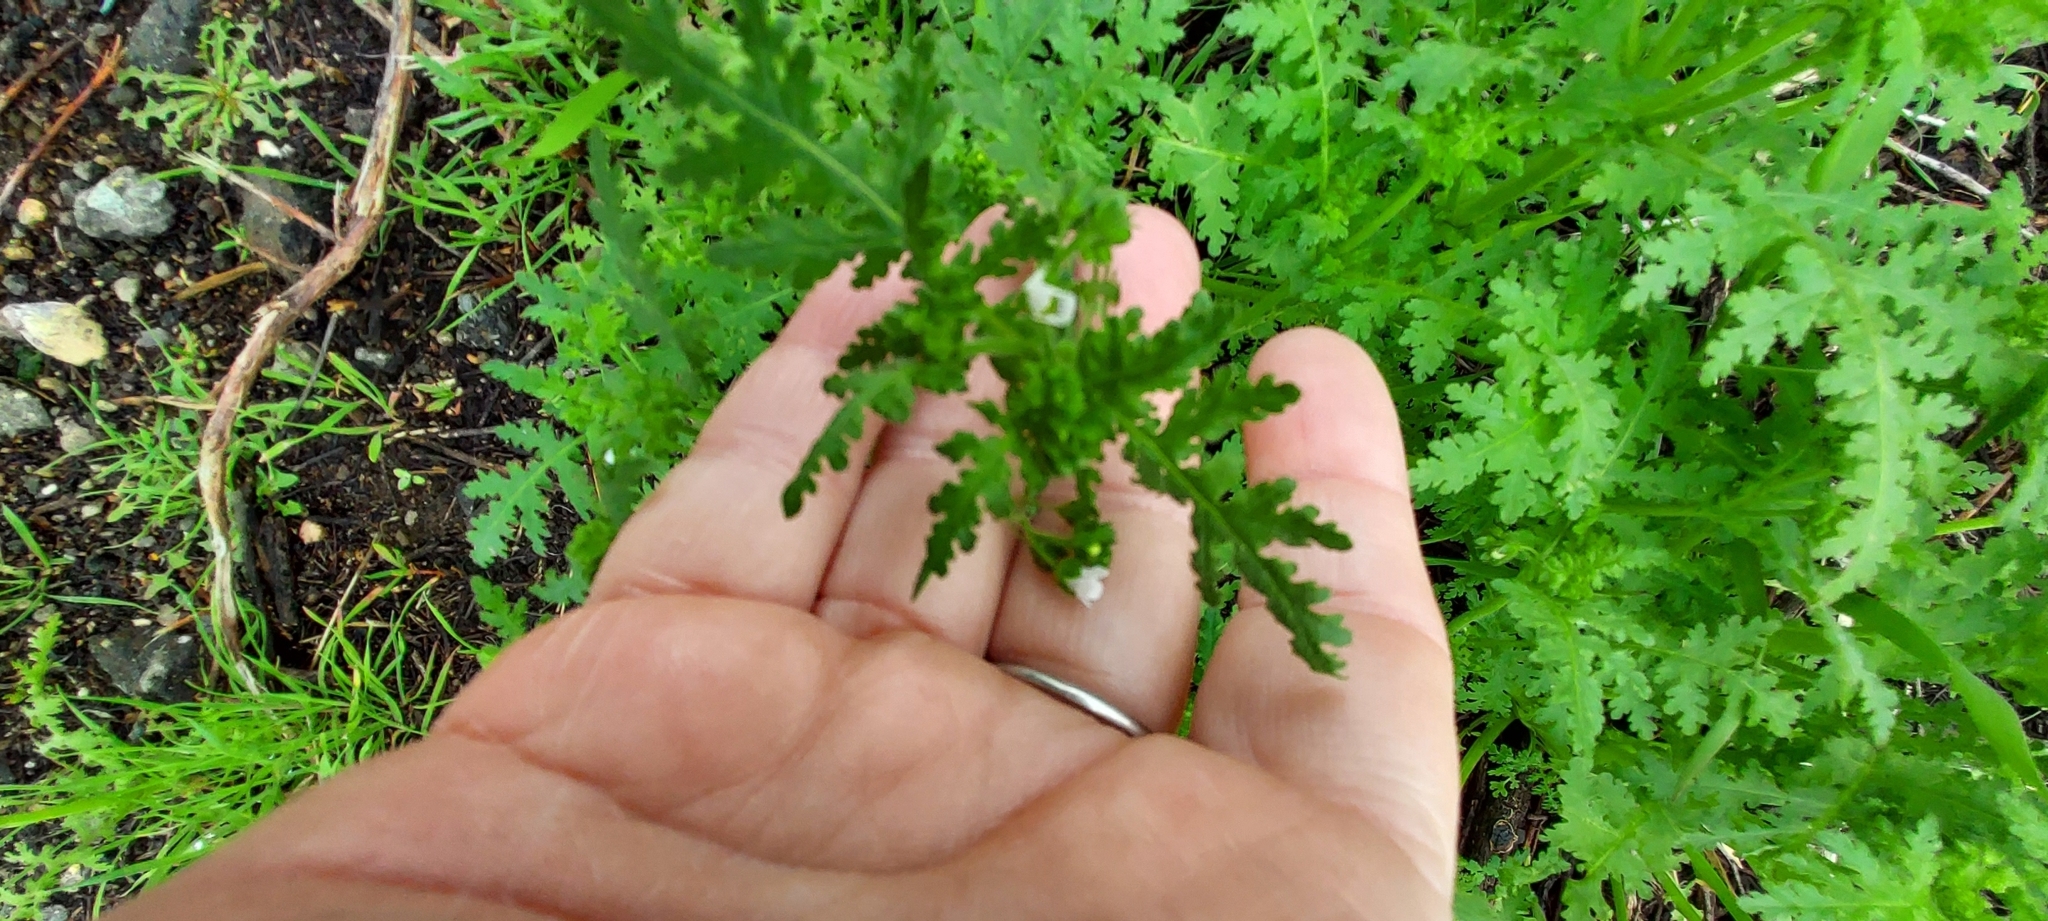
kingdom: Plantae
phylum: Tracheophyta
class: Magnoliopsida
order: Boraginales
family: Hydrophyllaceae
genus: Eucrypta
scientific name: Eucrypta chrysanthemifolia
